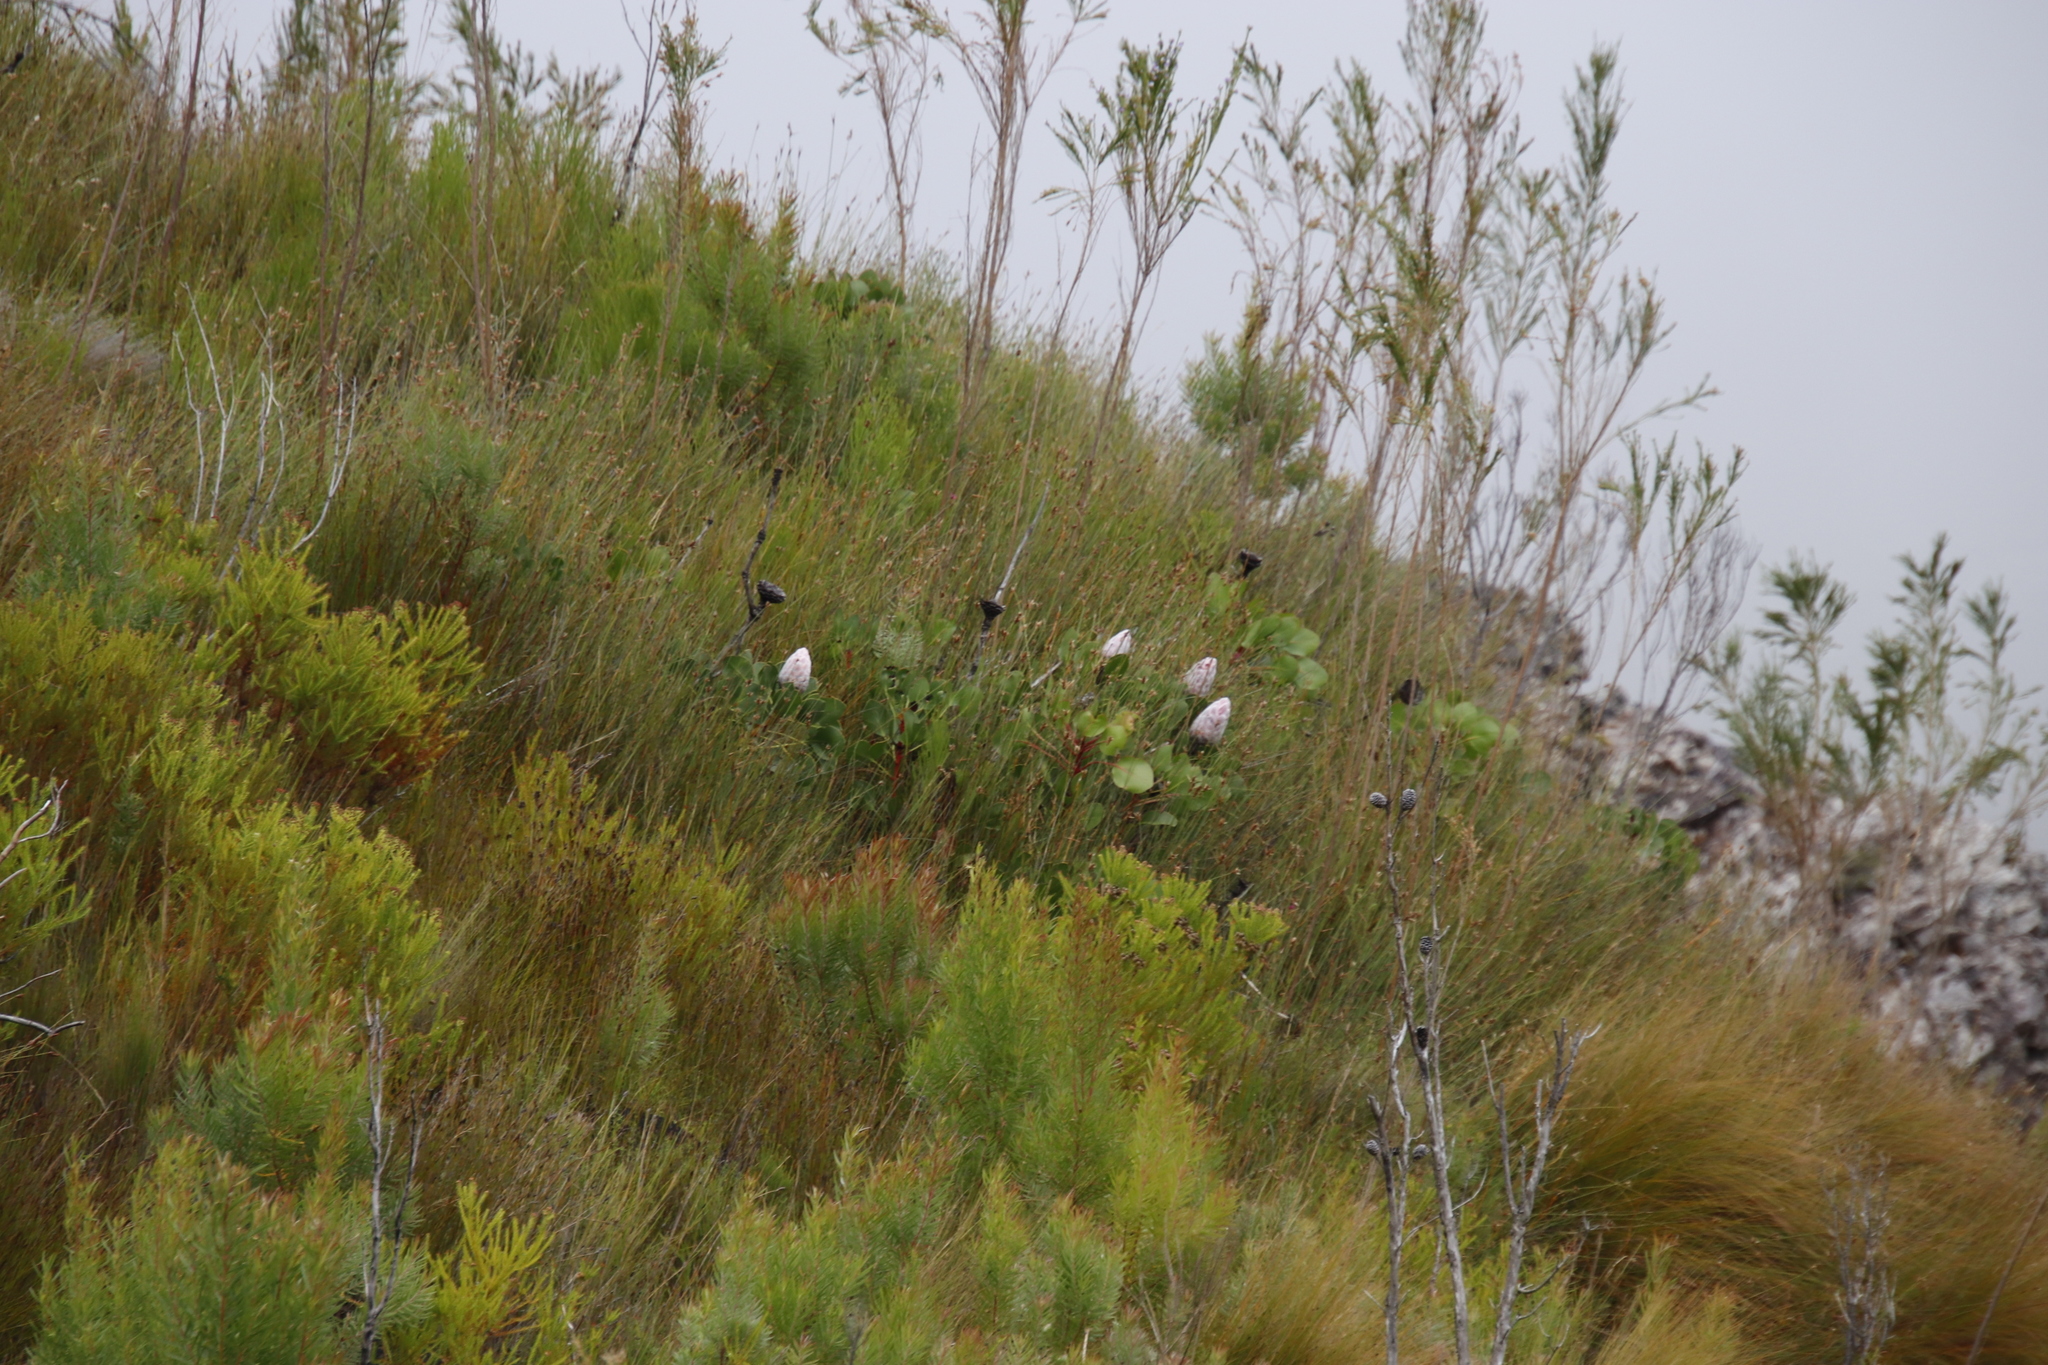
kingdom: Plantae
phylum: Tracheophyta
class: Magnoliopsida
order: Proteales
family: Proteaceae
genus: Protea
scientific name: Protea cynaroides
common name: King protea
